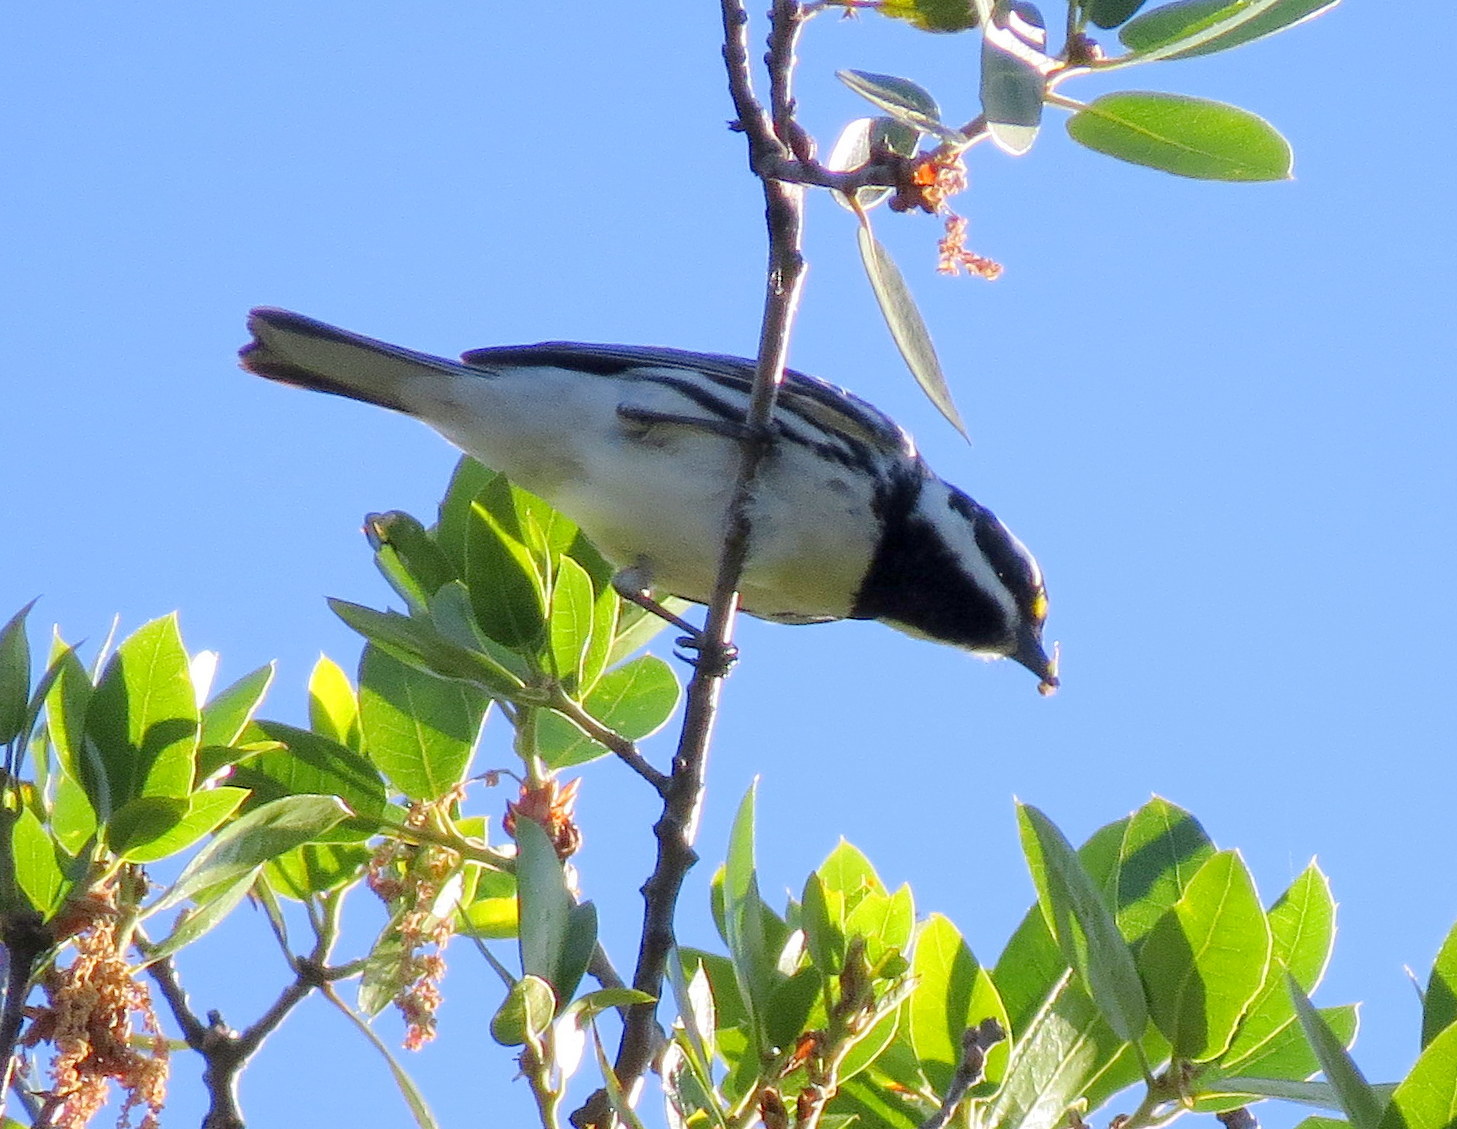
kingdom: Animalia
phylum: Chordata
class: Aves
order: Passeriformes
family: Parulidae
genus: Setophaga
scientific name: Setophaga nigrescens
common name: Black-throated gray warbler
